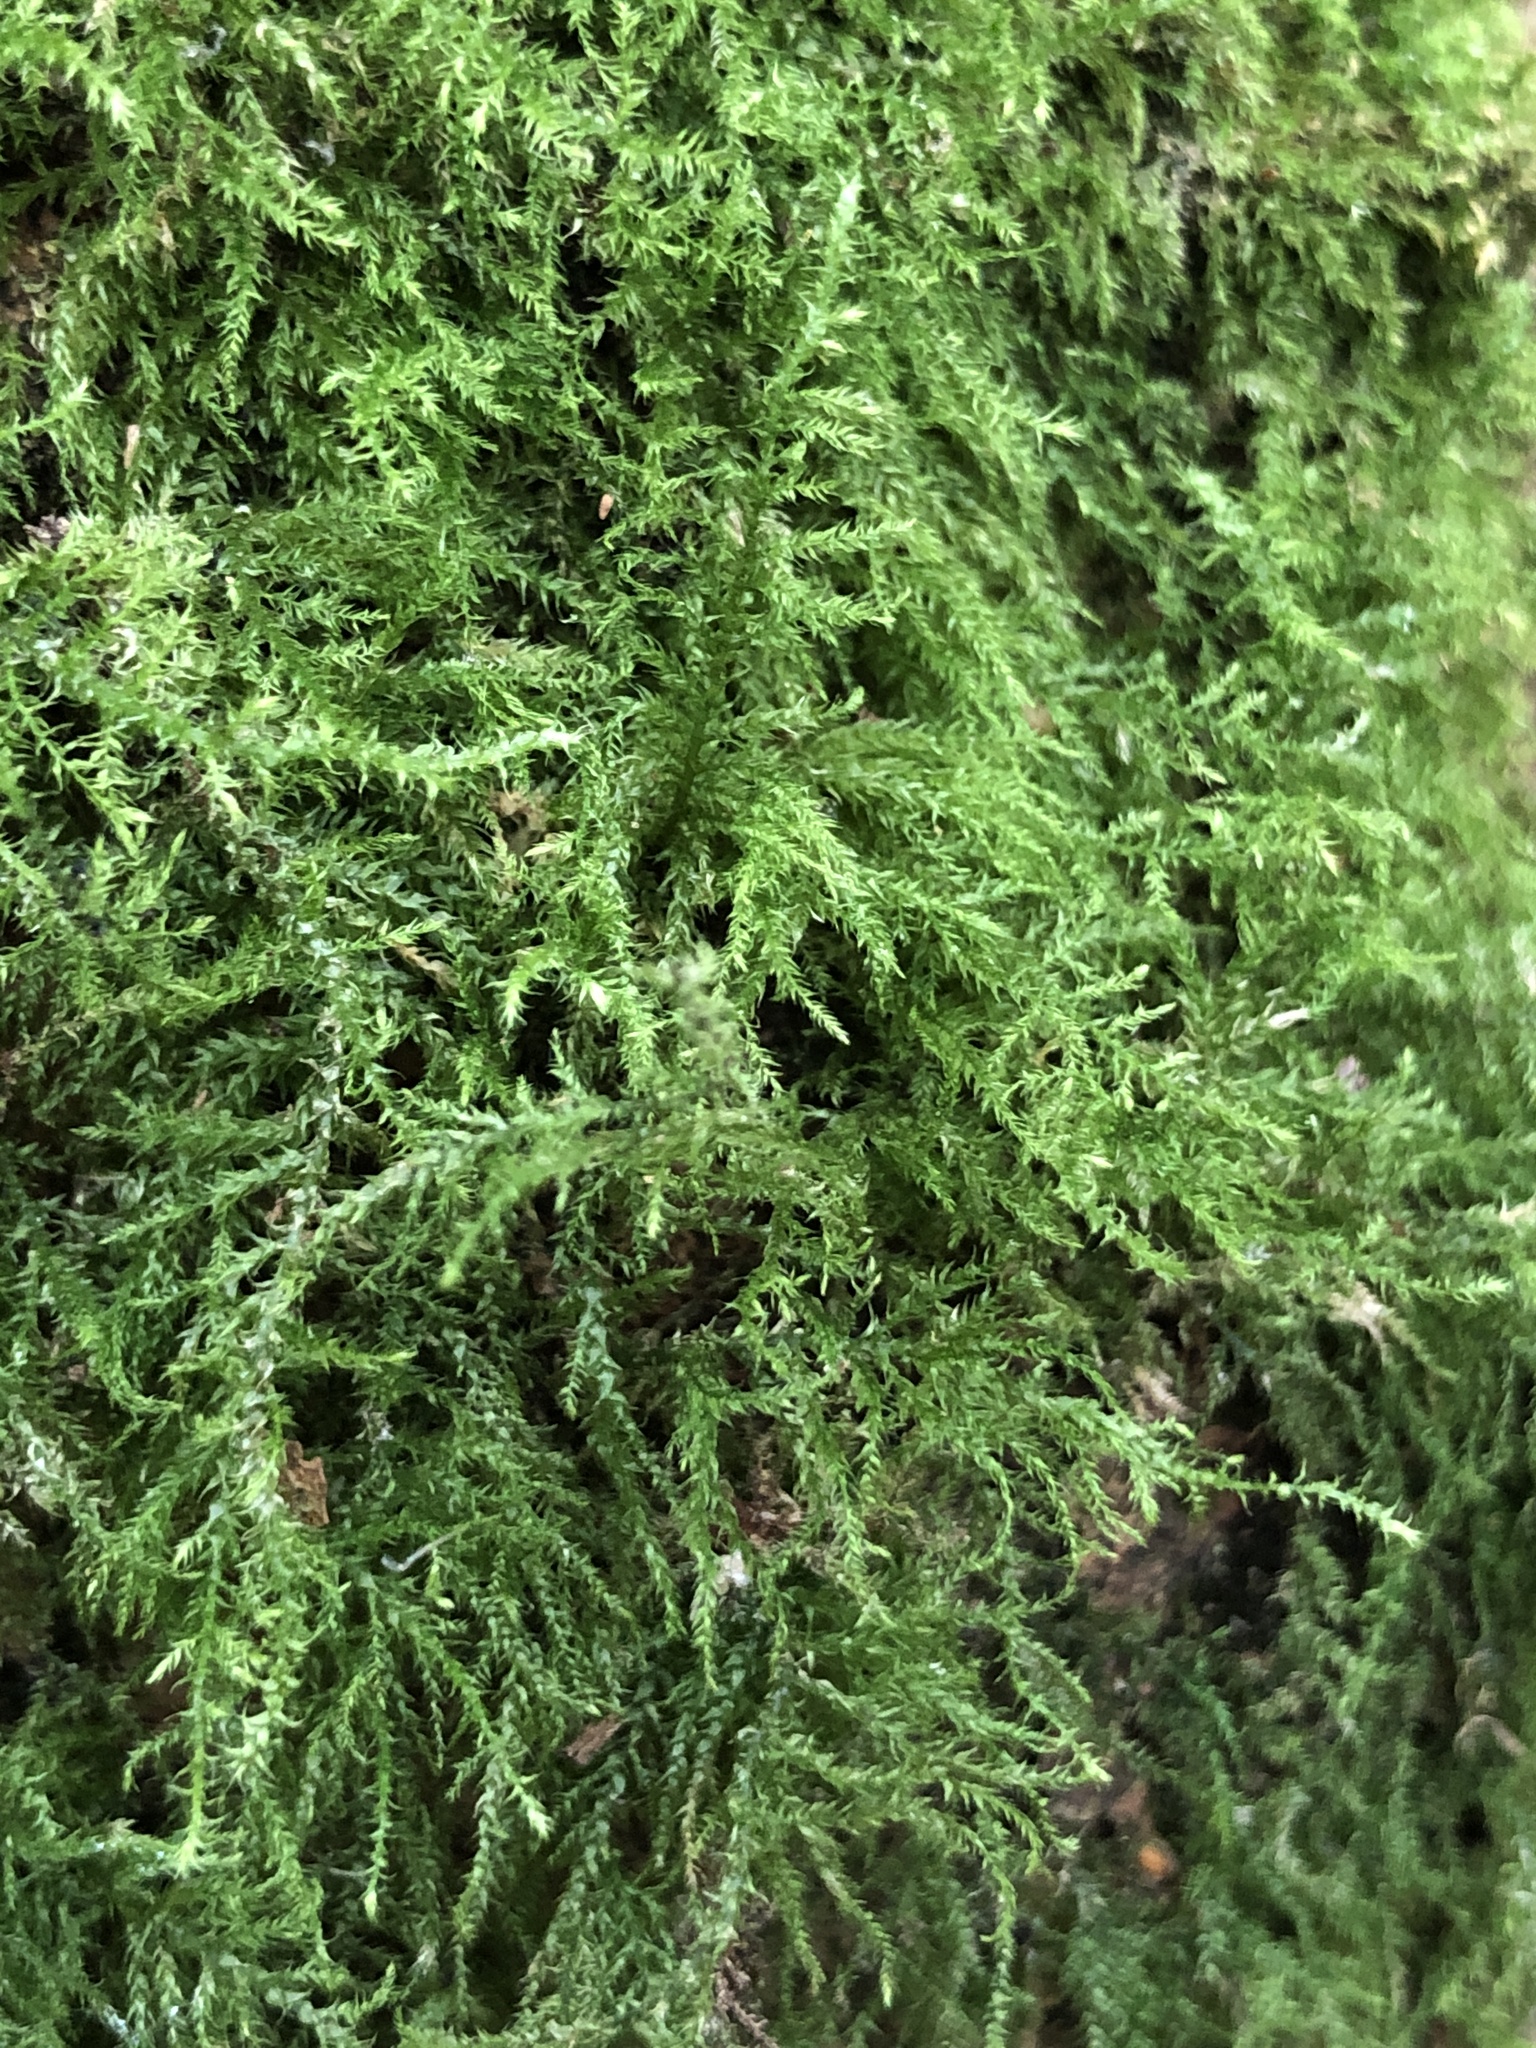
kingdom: Plantae
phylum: Bryophyta
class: Bryopsida
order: Hypnales
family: Brachytheciaceae
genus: Kindbergia
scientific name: Kindbergia praelonga
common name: Slender beaked moss
